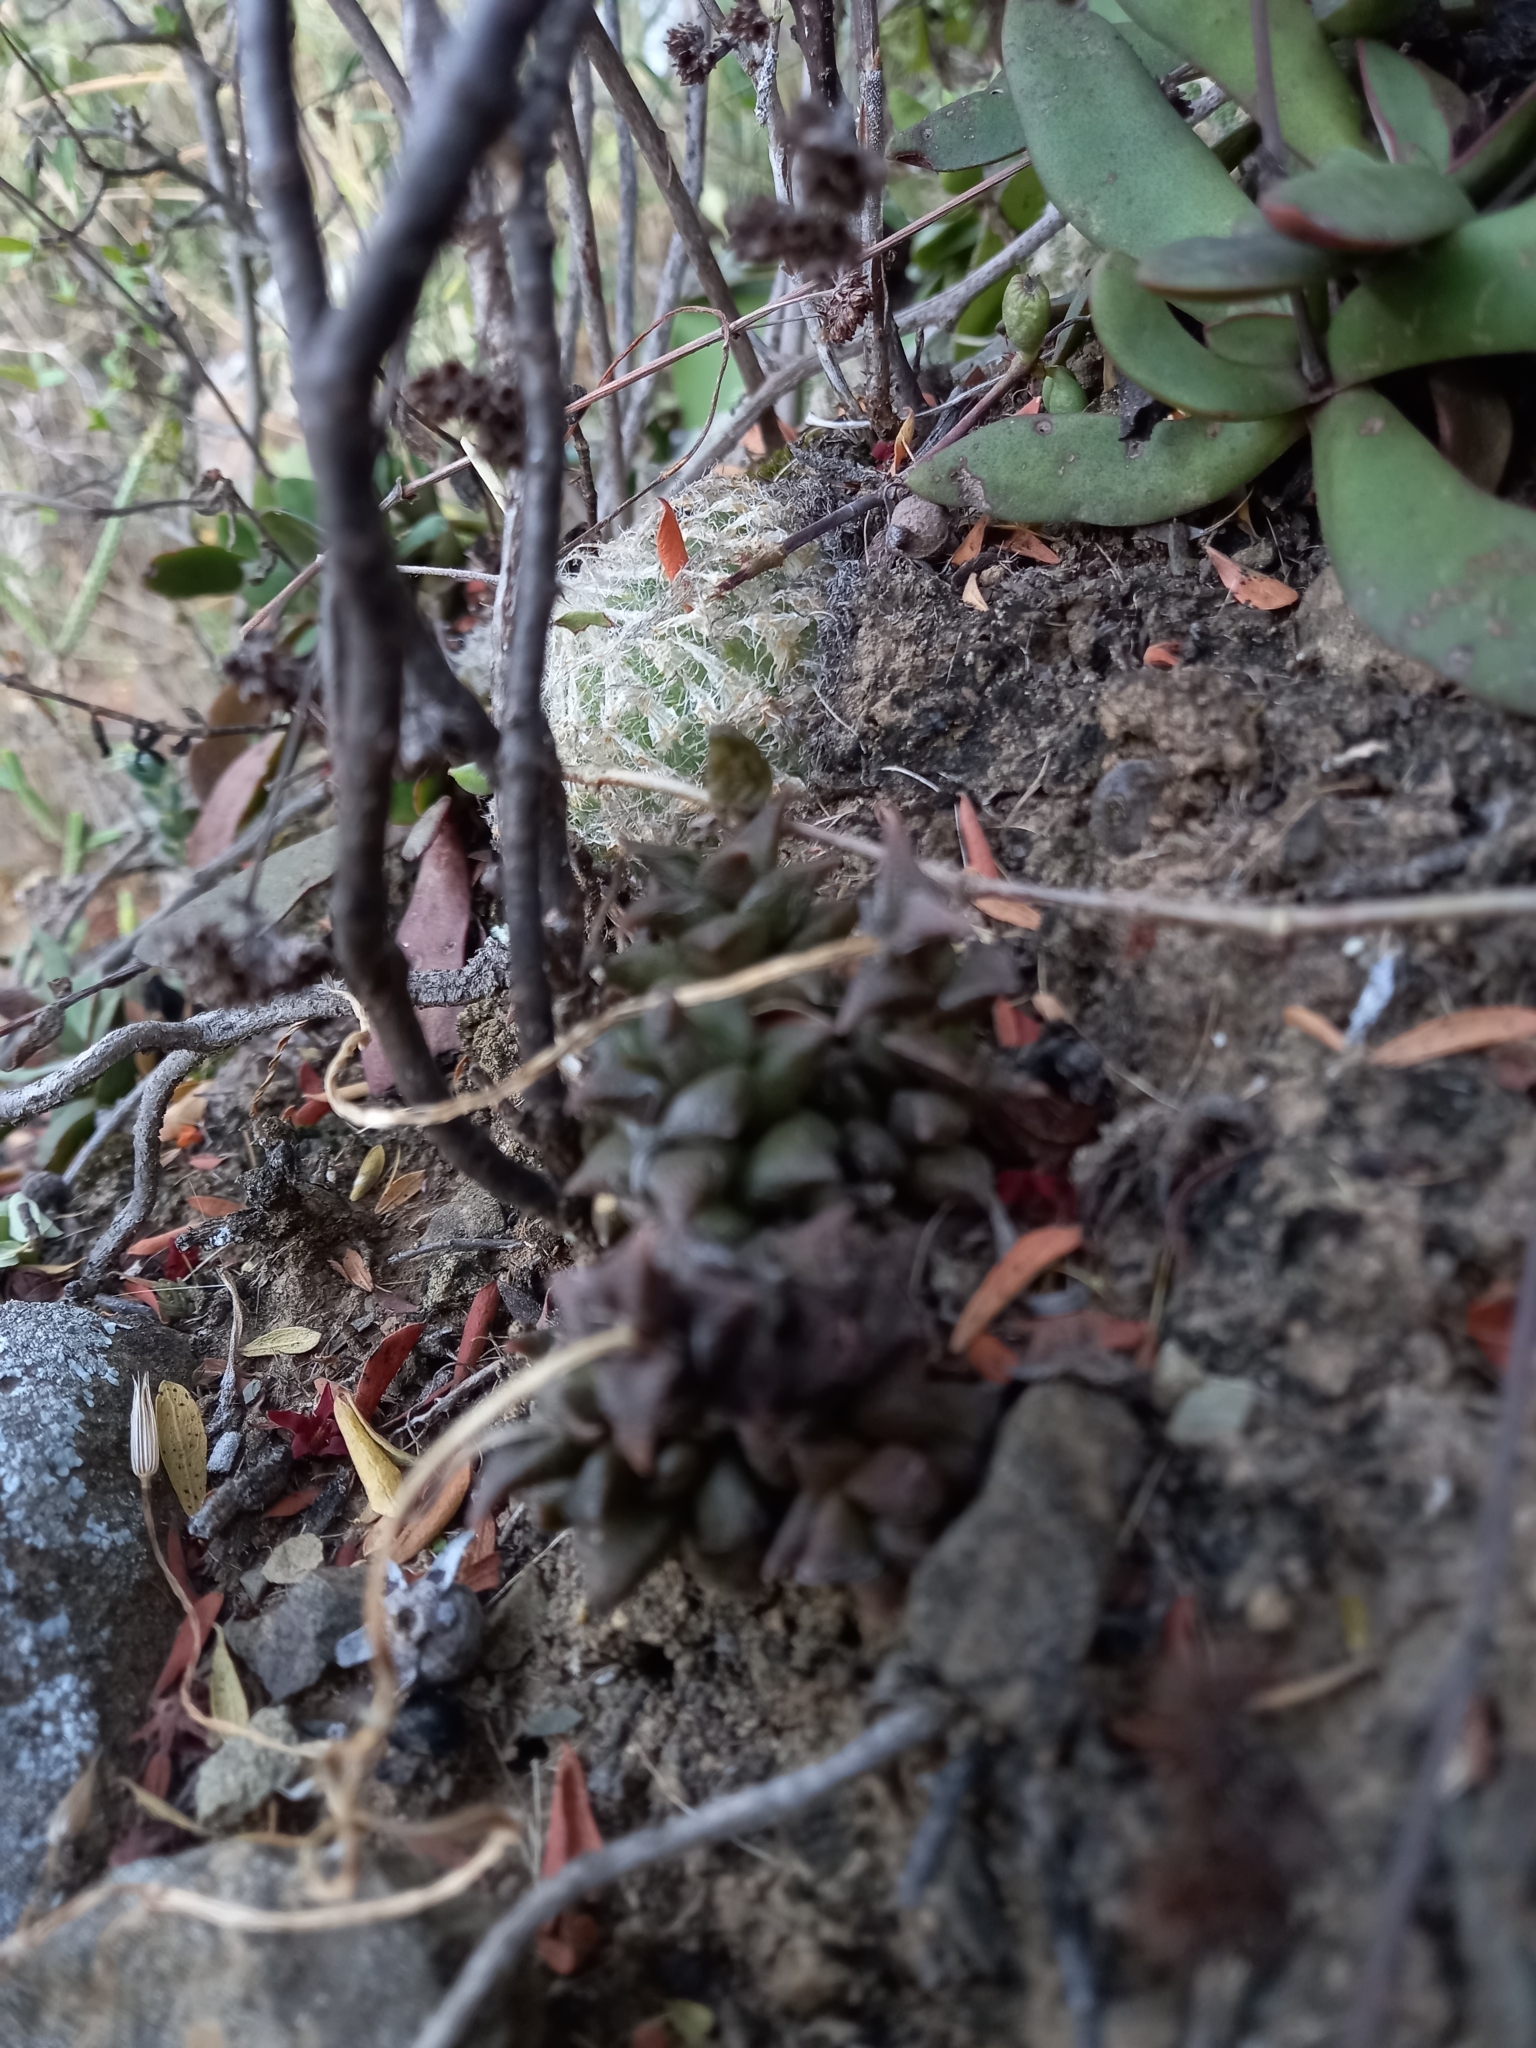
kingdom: Plantae
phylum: Tracheophyta
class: Liliopsida
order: Asparagales
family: Asphodelaceae
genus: Haworthia
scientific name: Haworthia bolusii
